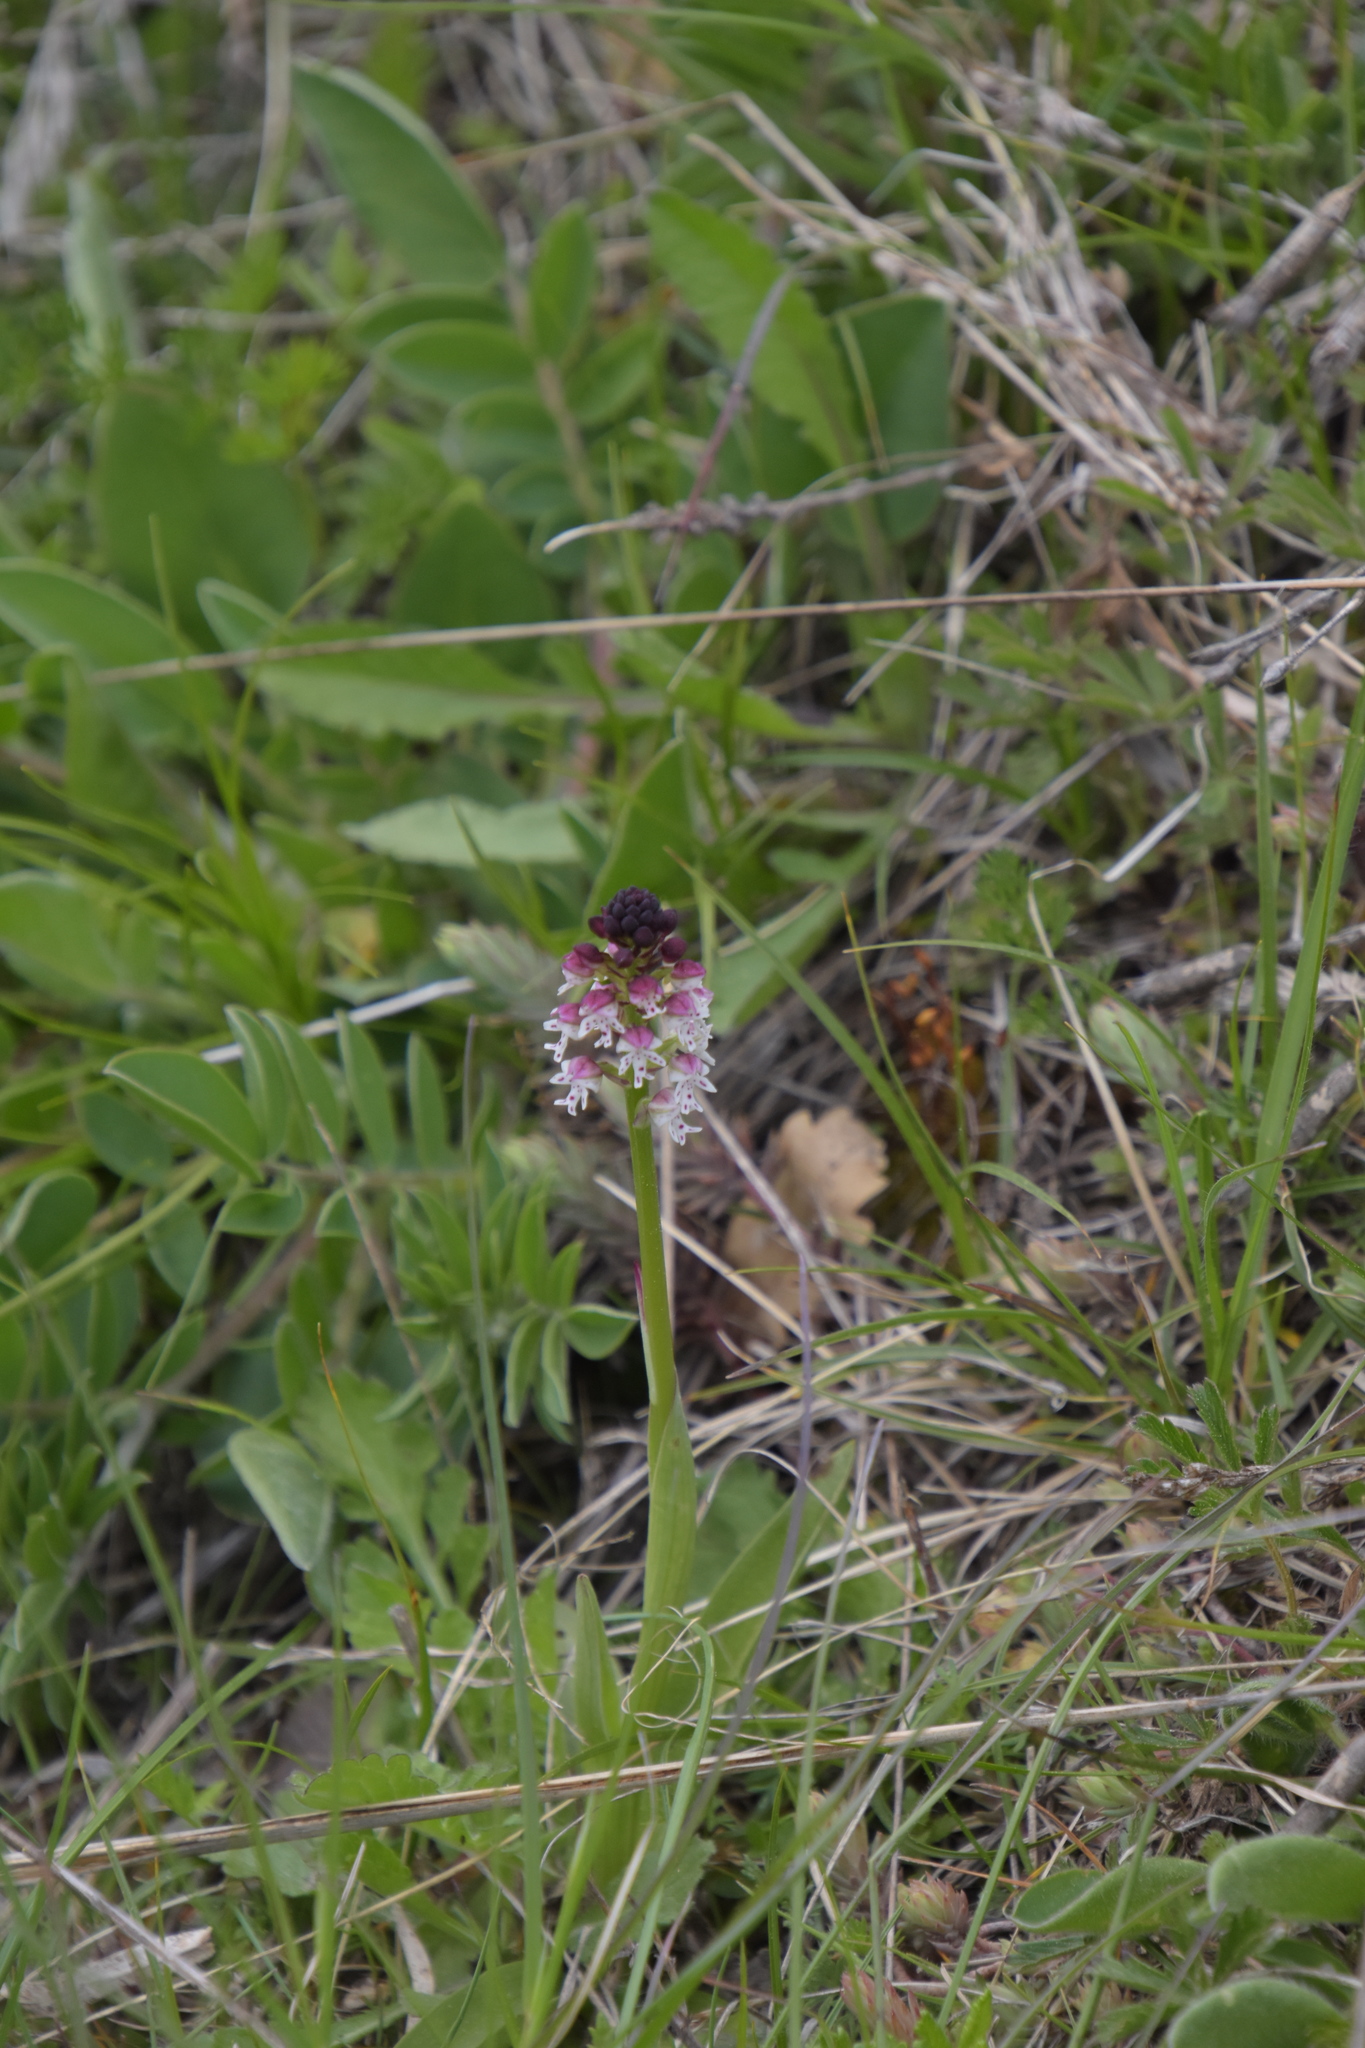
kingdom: Plantae
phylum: Tracheophyta
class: Liliopsida
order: Asparagales
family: Orchidaceae
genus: Neotinea
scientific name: Neotinea ustulata
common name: Burnt orchid
